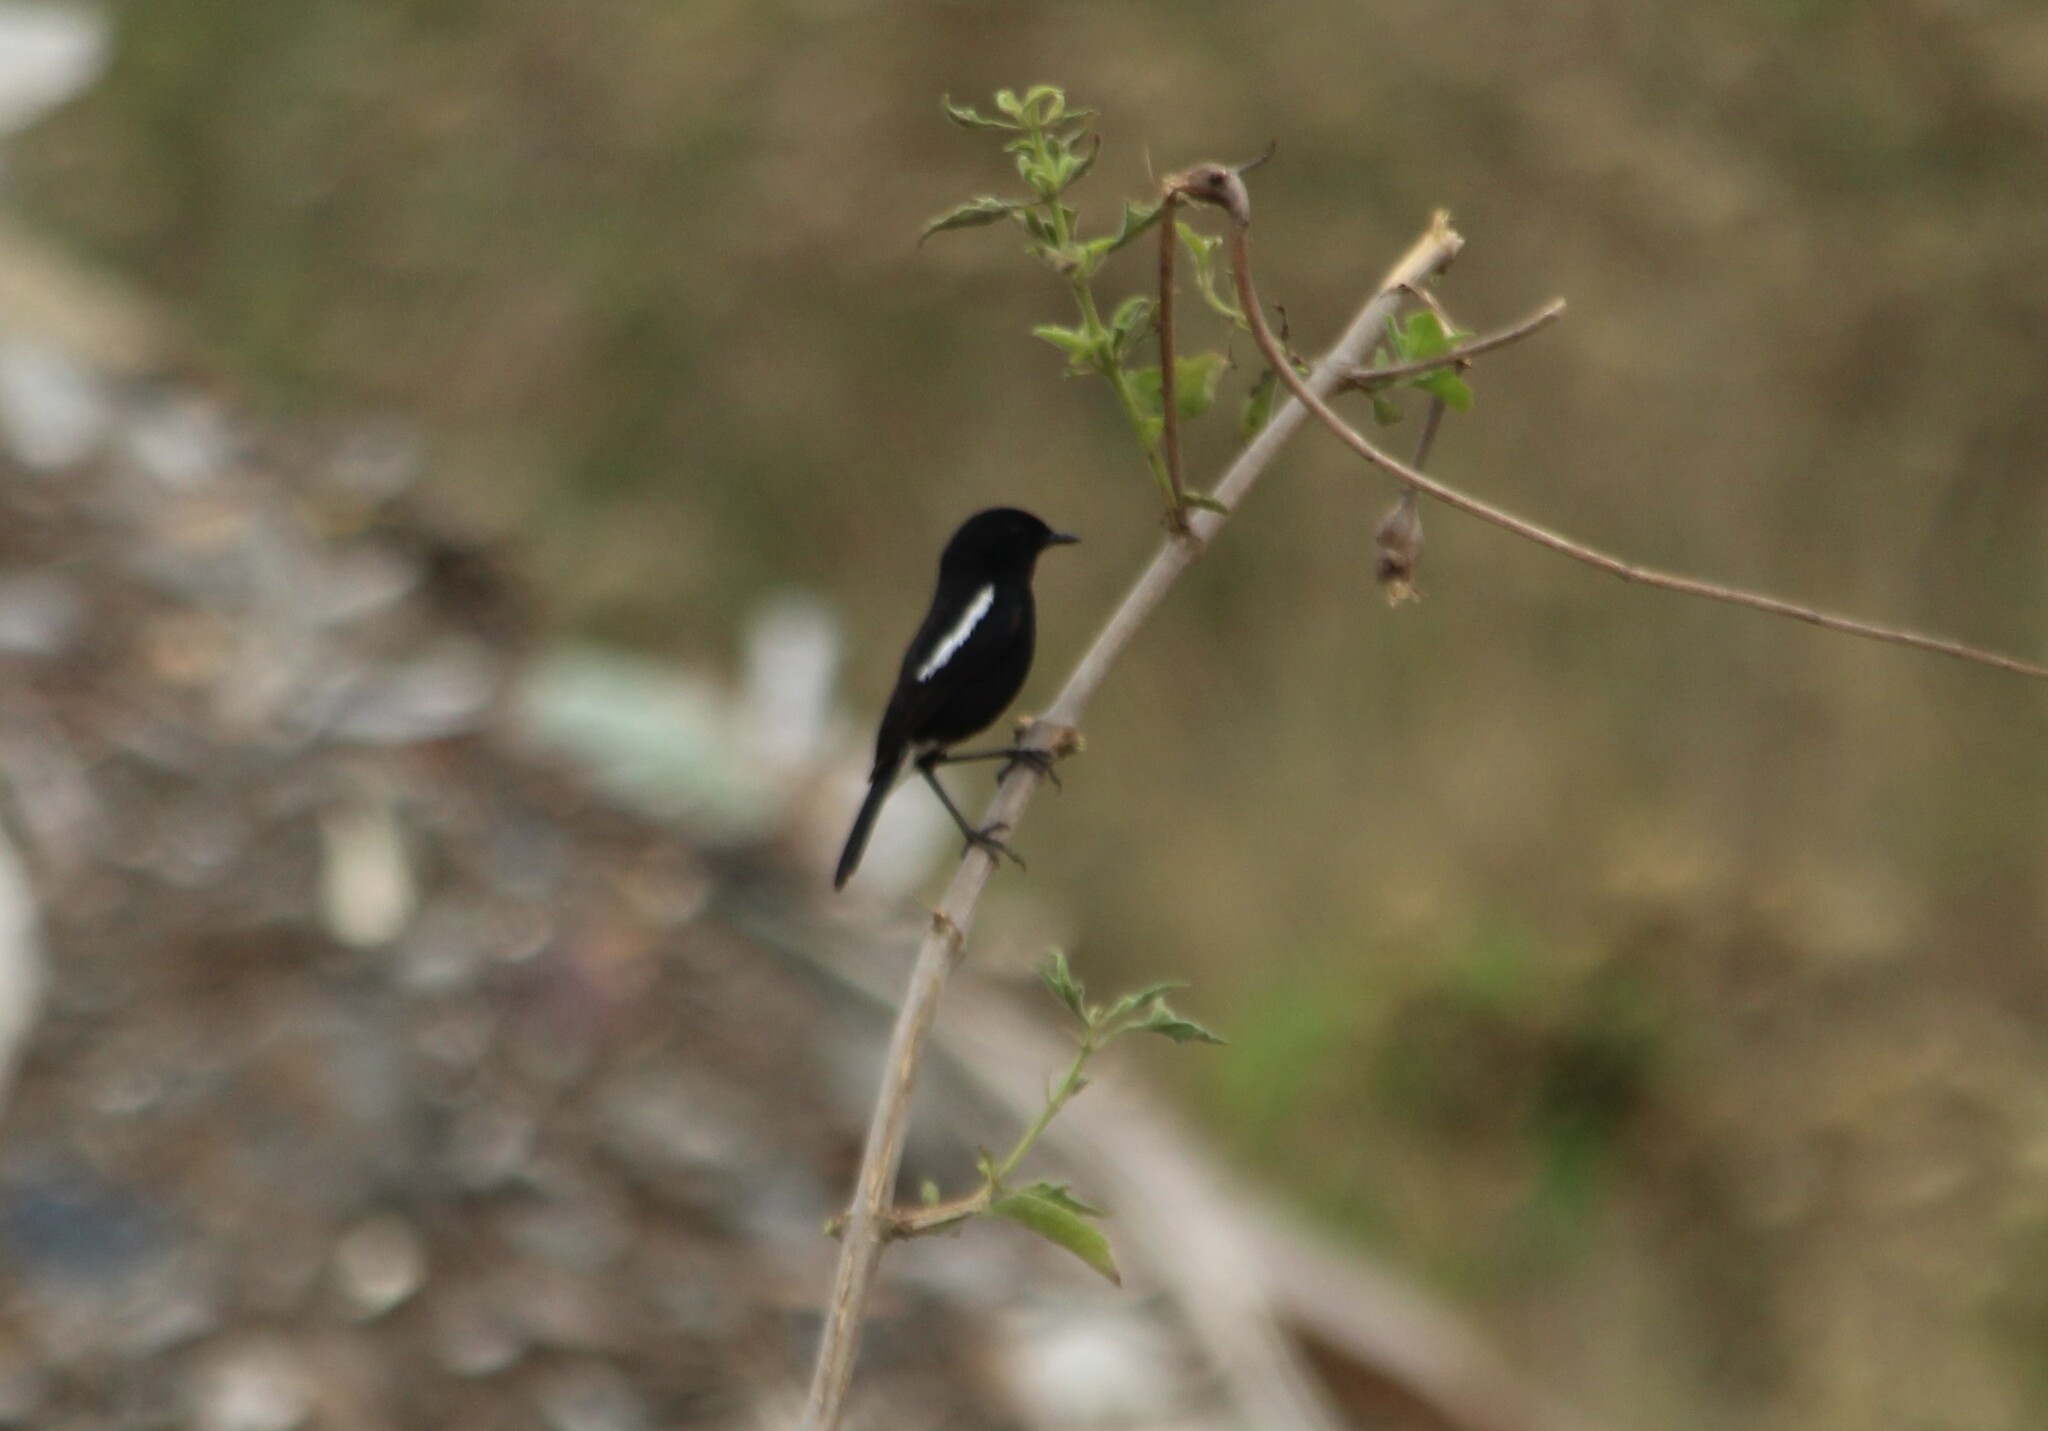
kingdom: Animalia
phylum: Chordata
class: Aves
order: Passeriformes
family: Muscicapidae
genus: Saxicola
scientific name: Saxicola caprata
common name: Pied bush chat
